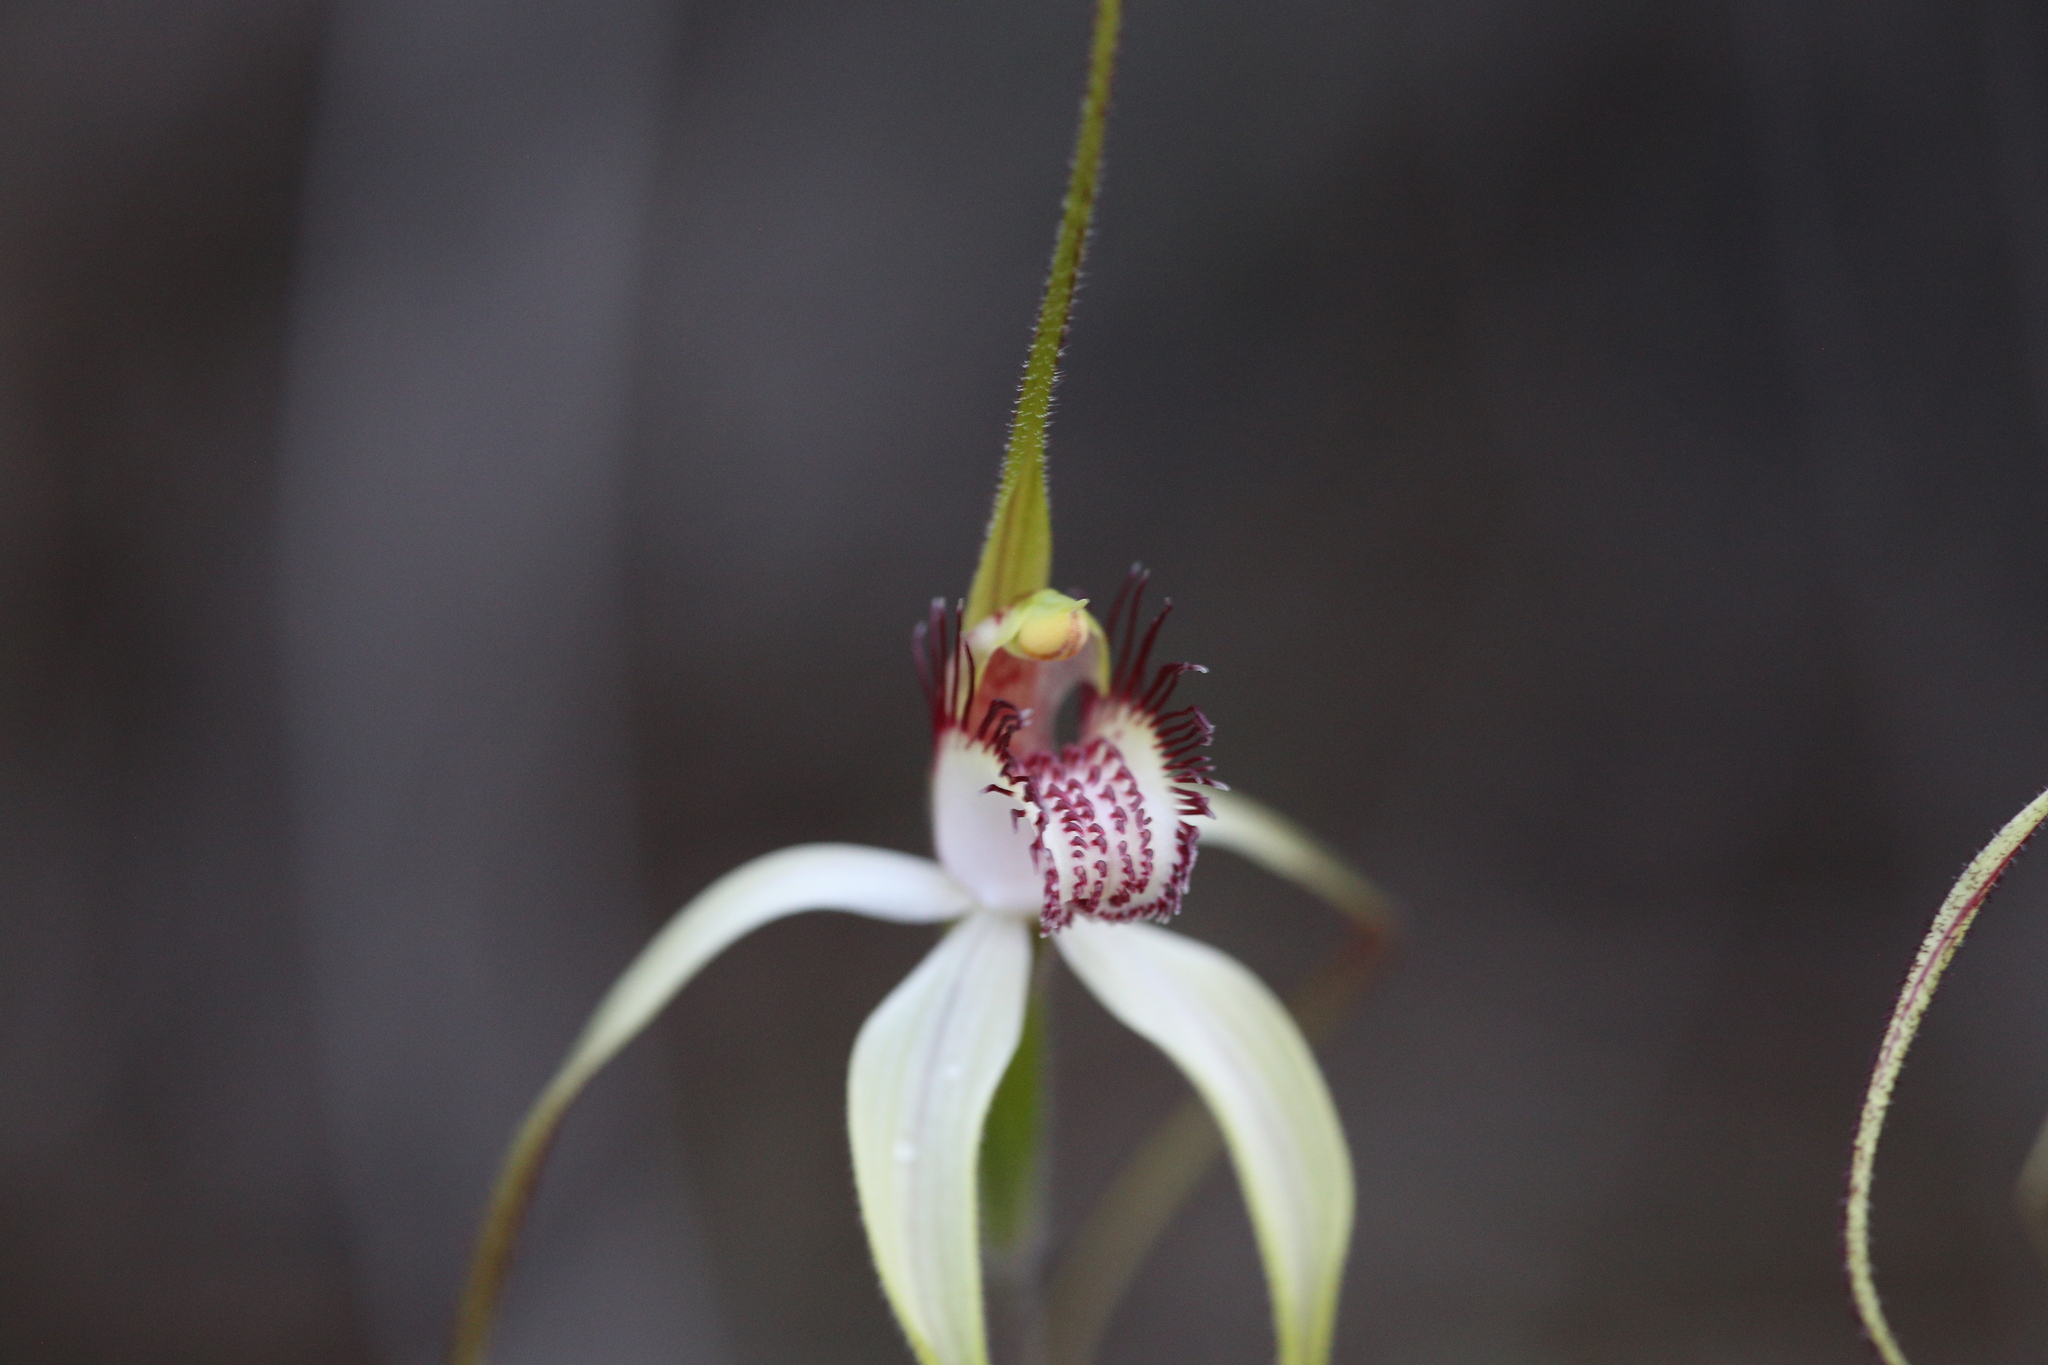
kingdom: Plantae
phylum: Tracheophyta
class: Liliopsida
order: Asparagales
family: Orchidaceae
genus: Caladenia
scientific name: Caladenia longicauda
